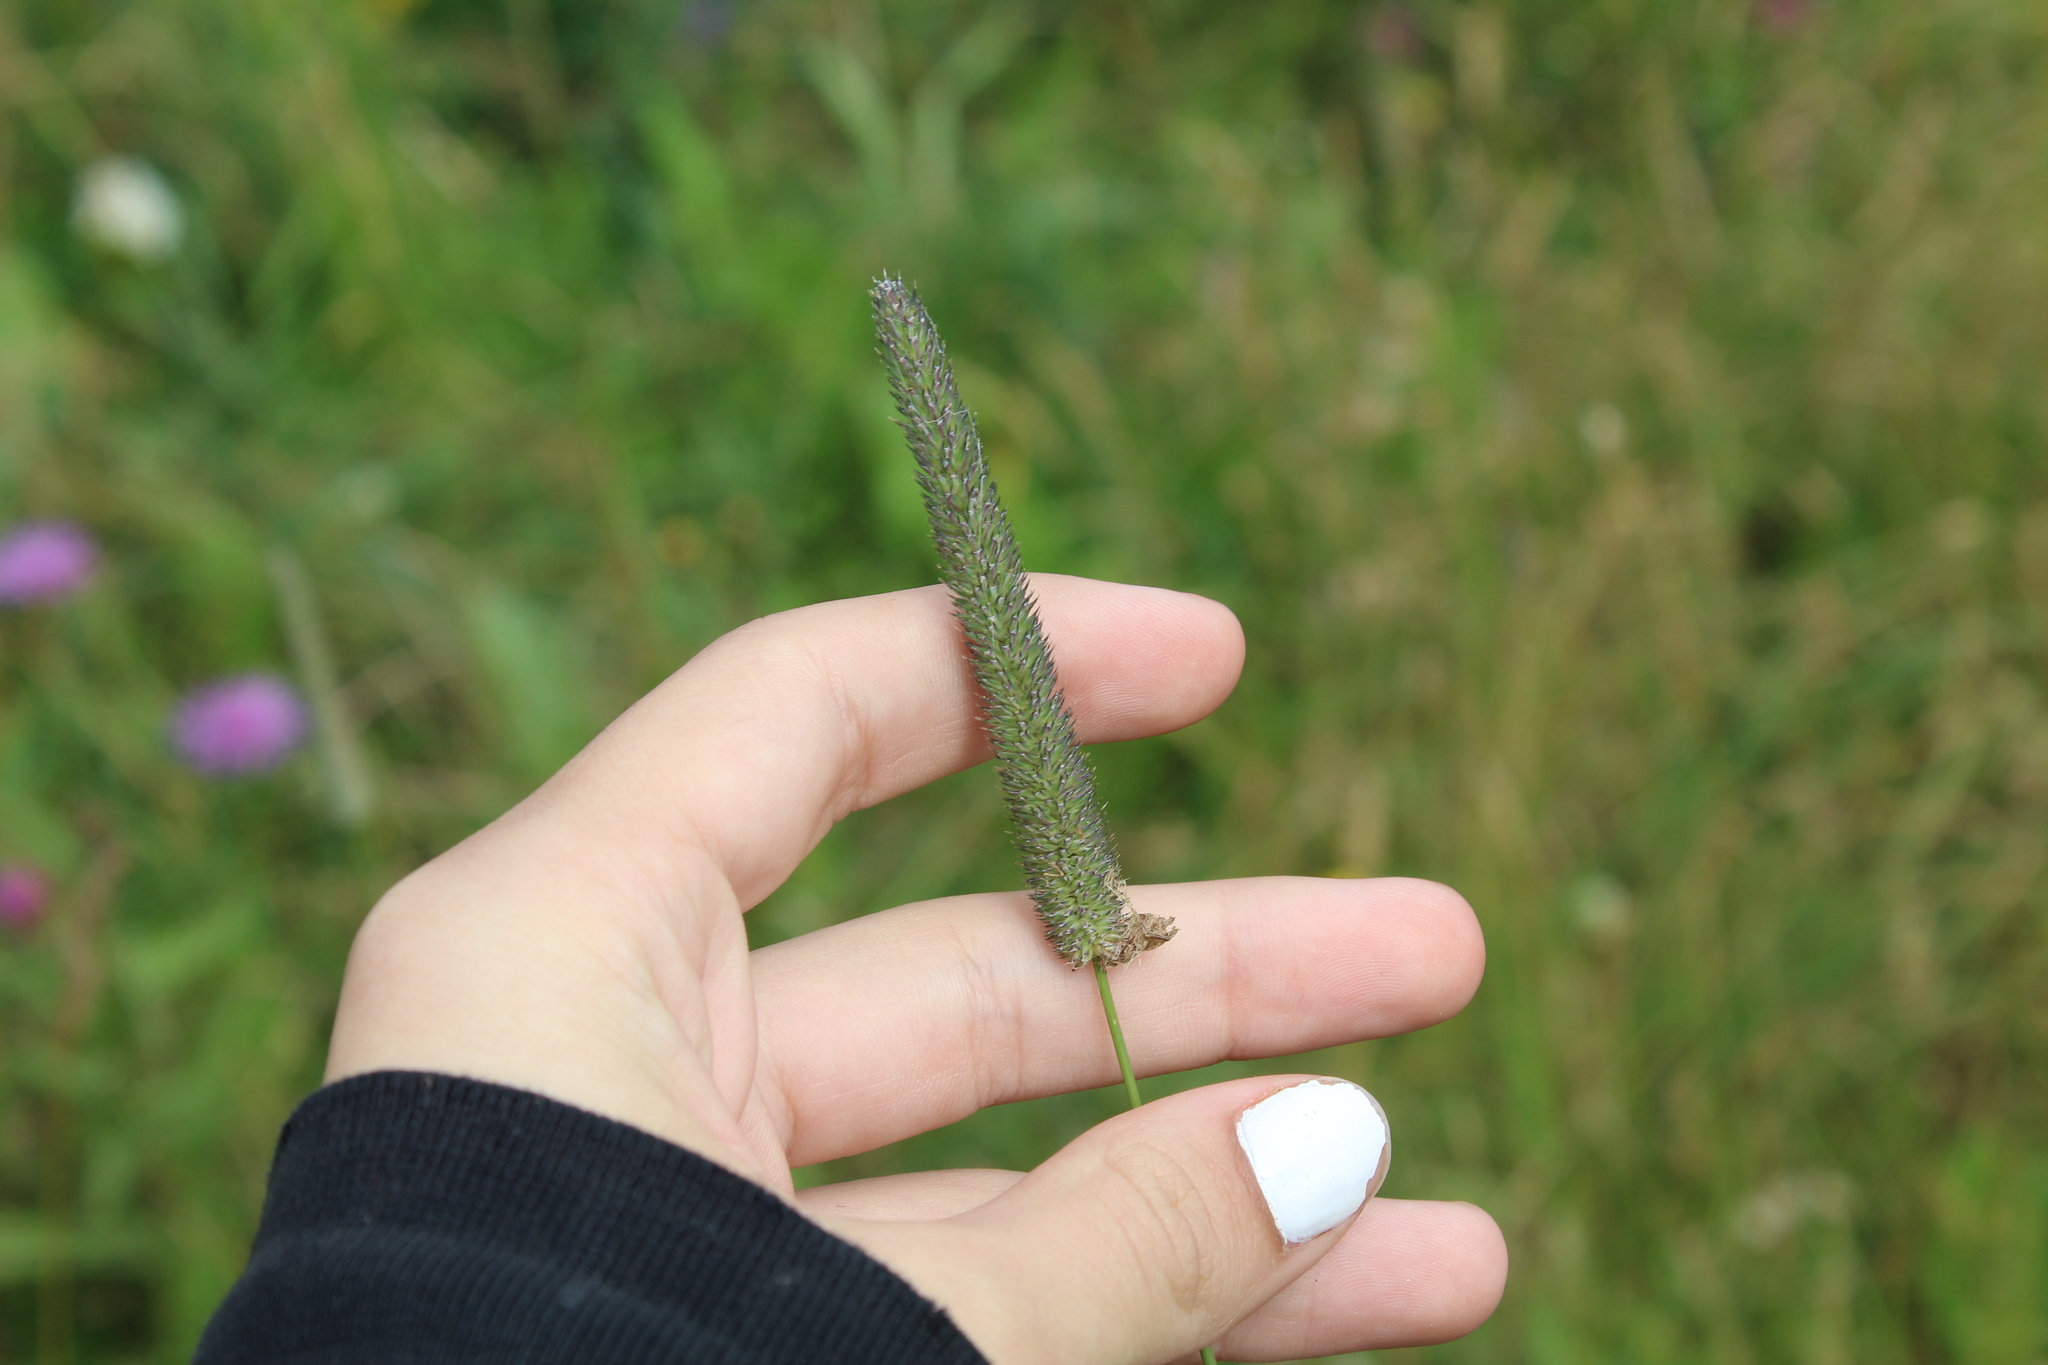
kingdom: Plantae
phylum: Tracheophyta
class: Liliopsida
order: Poales
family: Poaceae
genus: Phleum
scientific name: Phleum pratense
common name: Timothy grass
